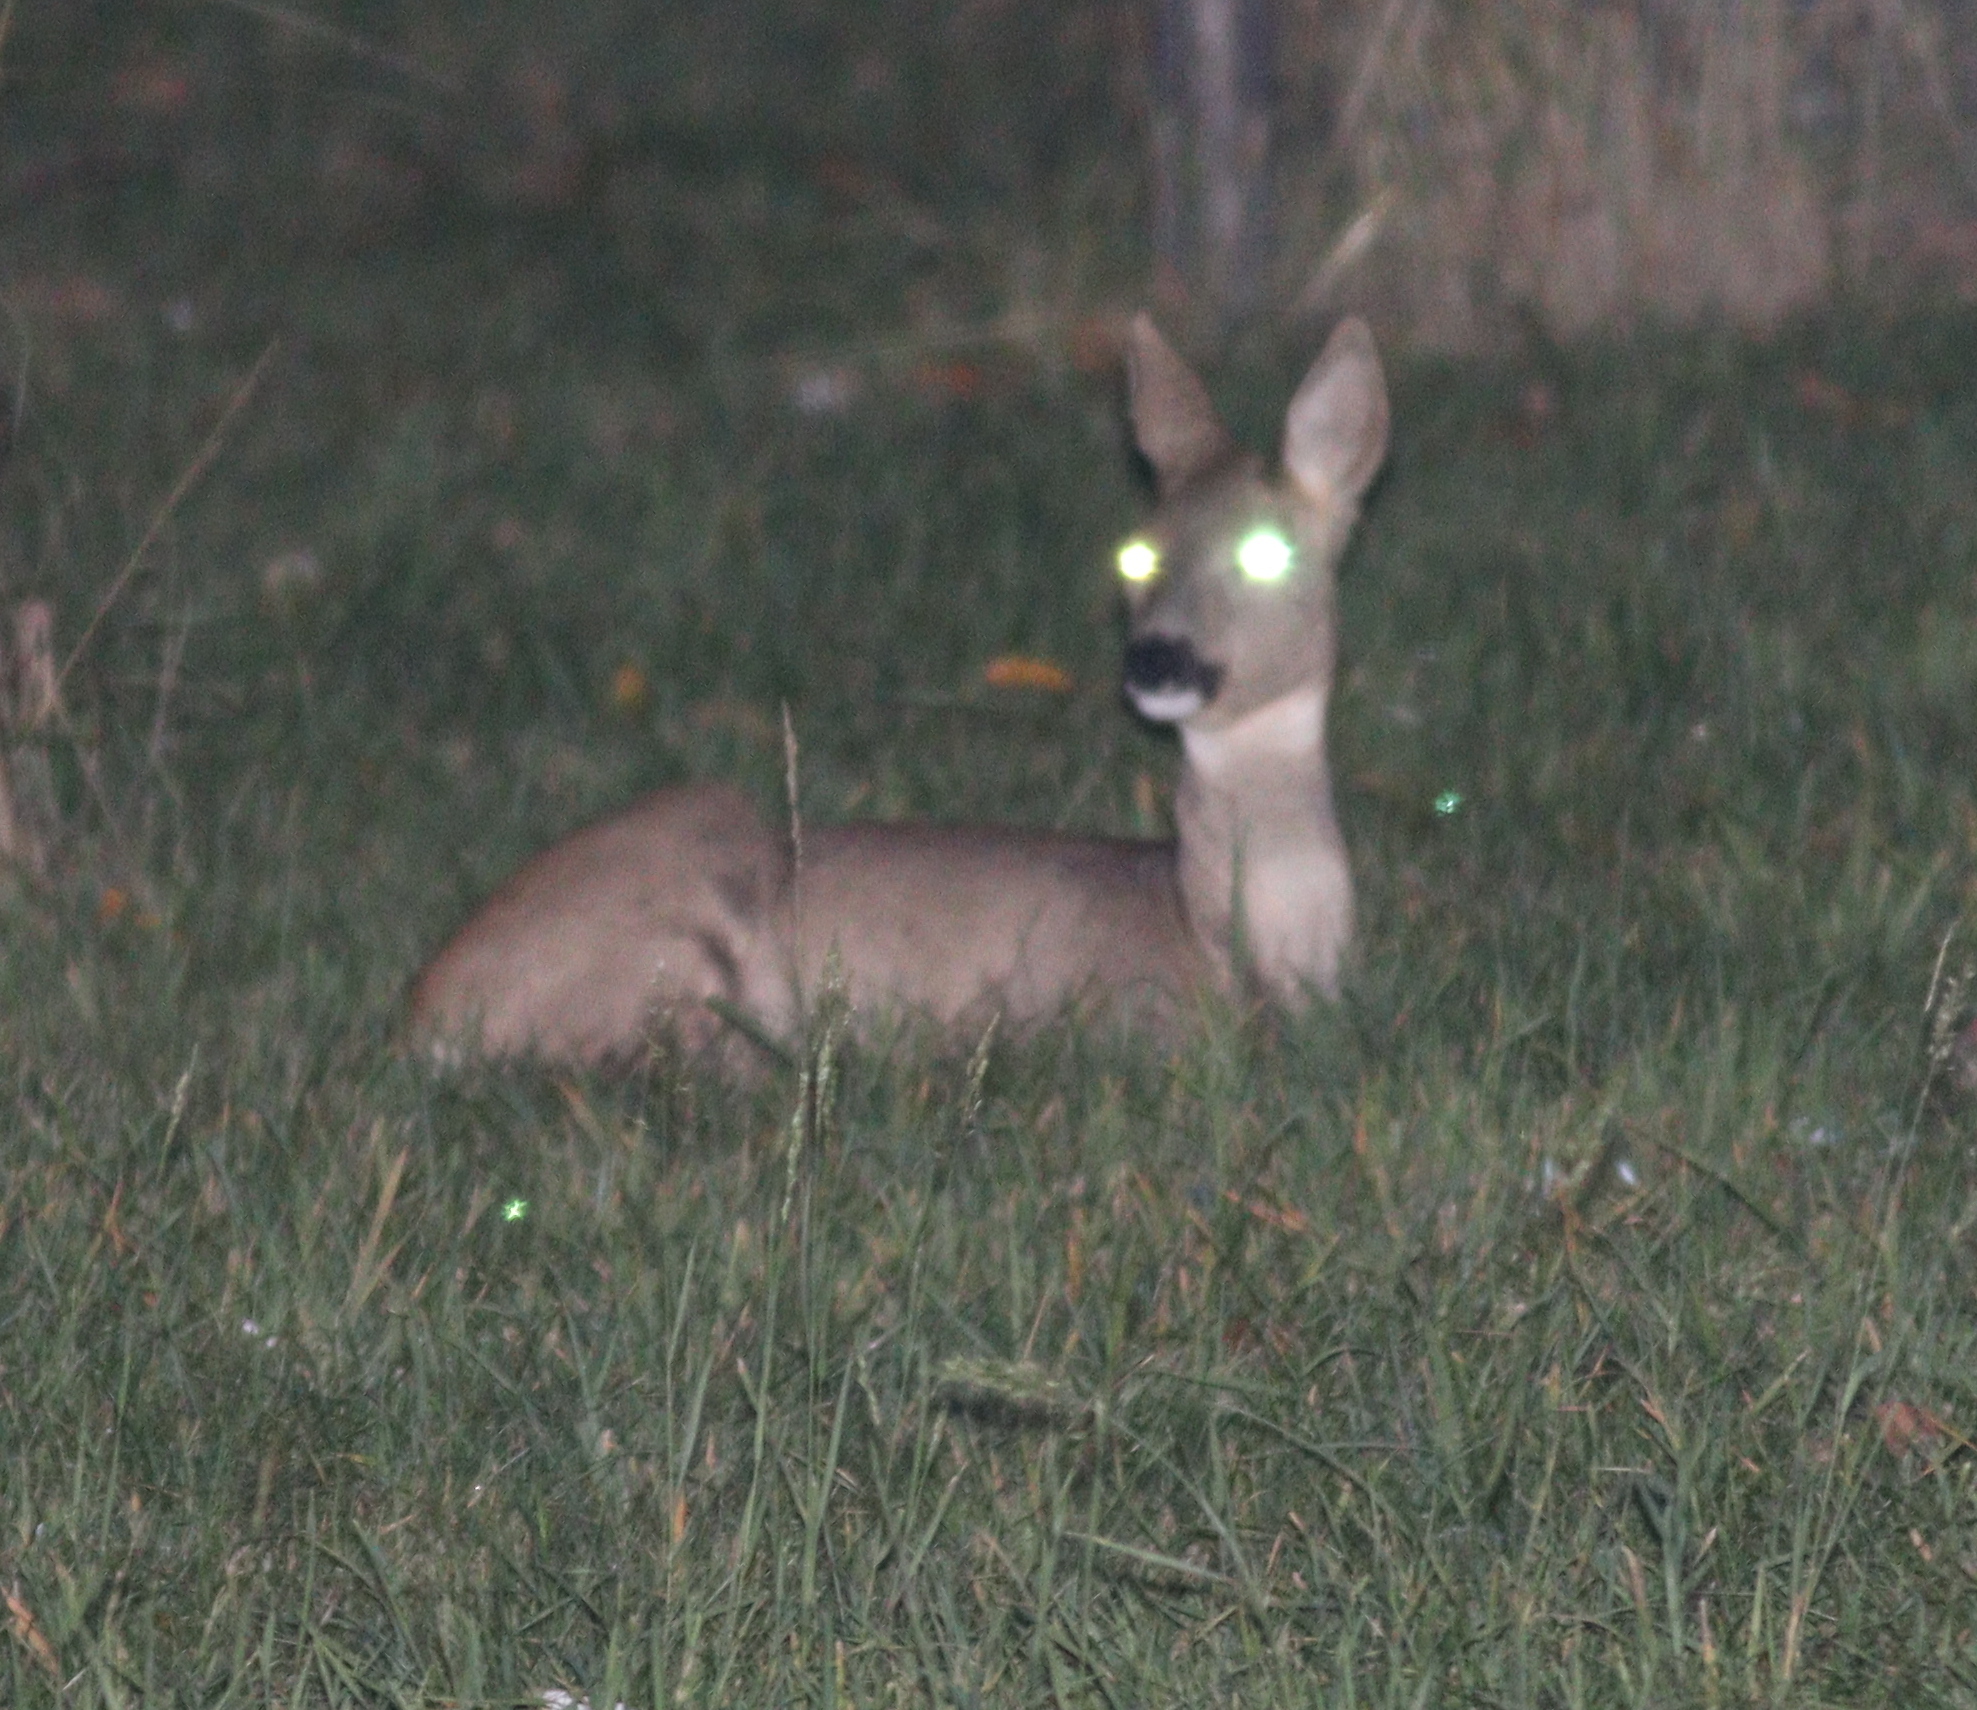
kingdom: Animalia
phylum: Chordata
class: Mammalia
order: Artiodactyla
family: Cervidae
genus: Capreolus
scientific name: Capreolus capreolus
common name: Western roe deer
